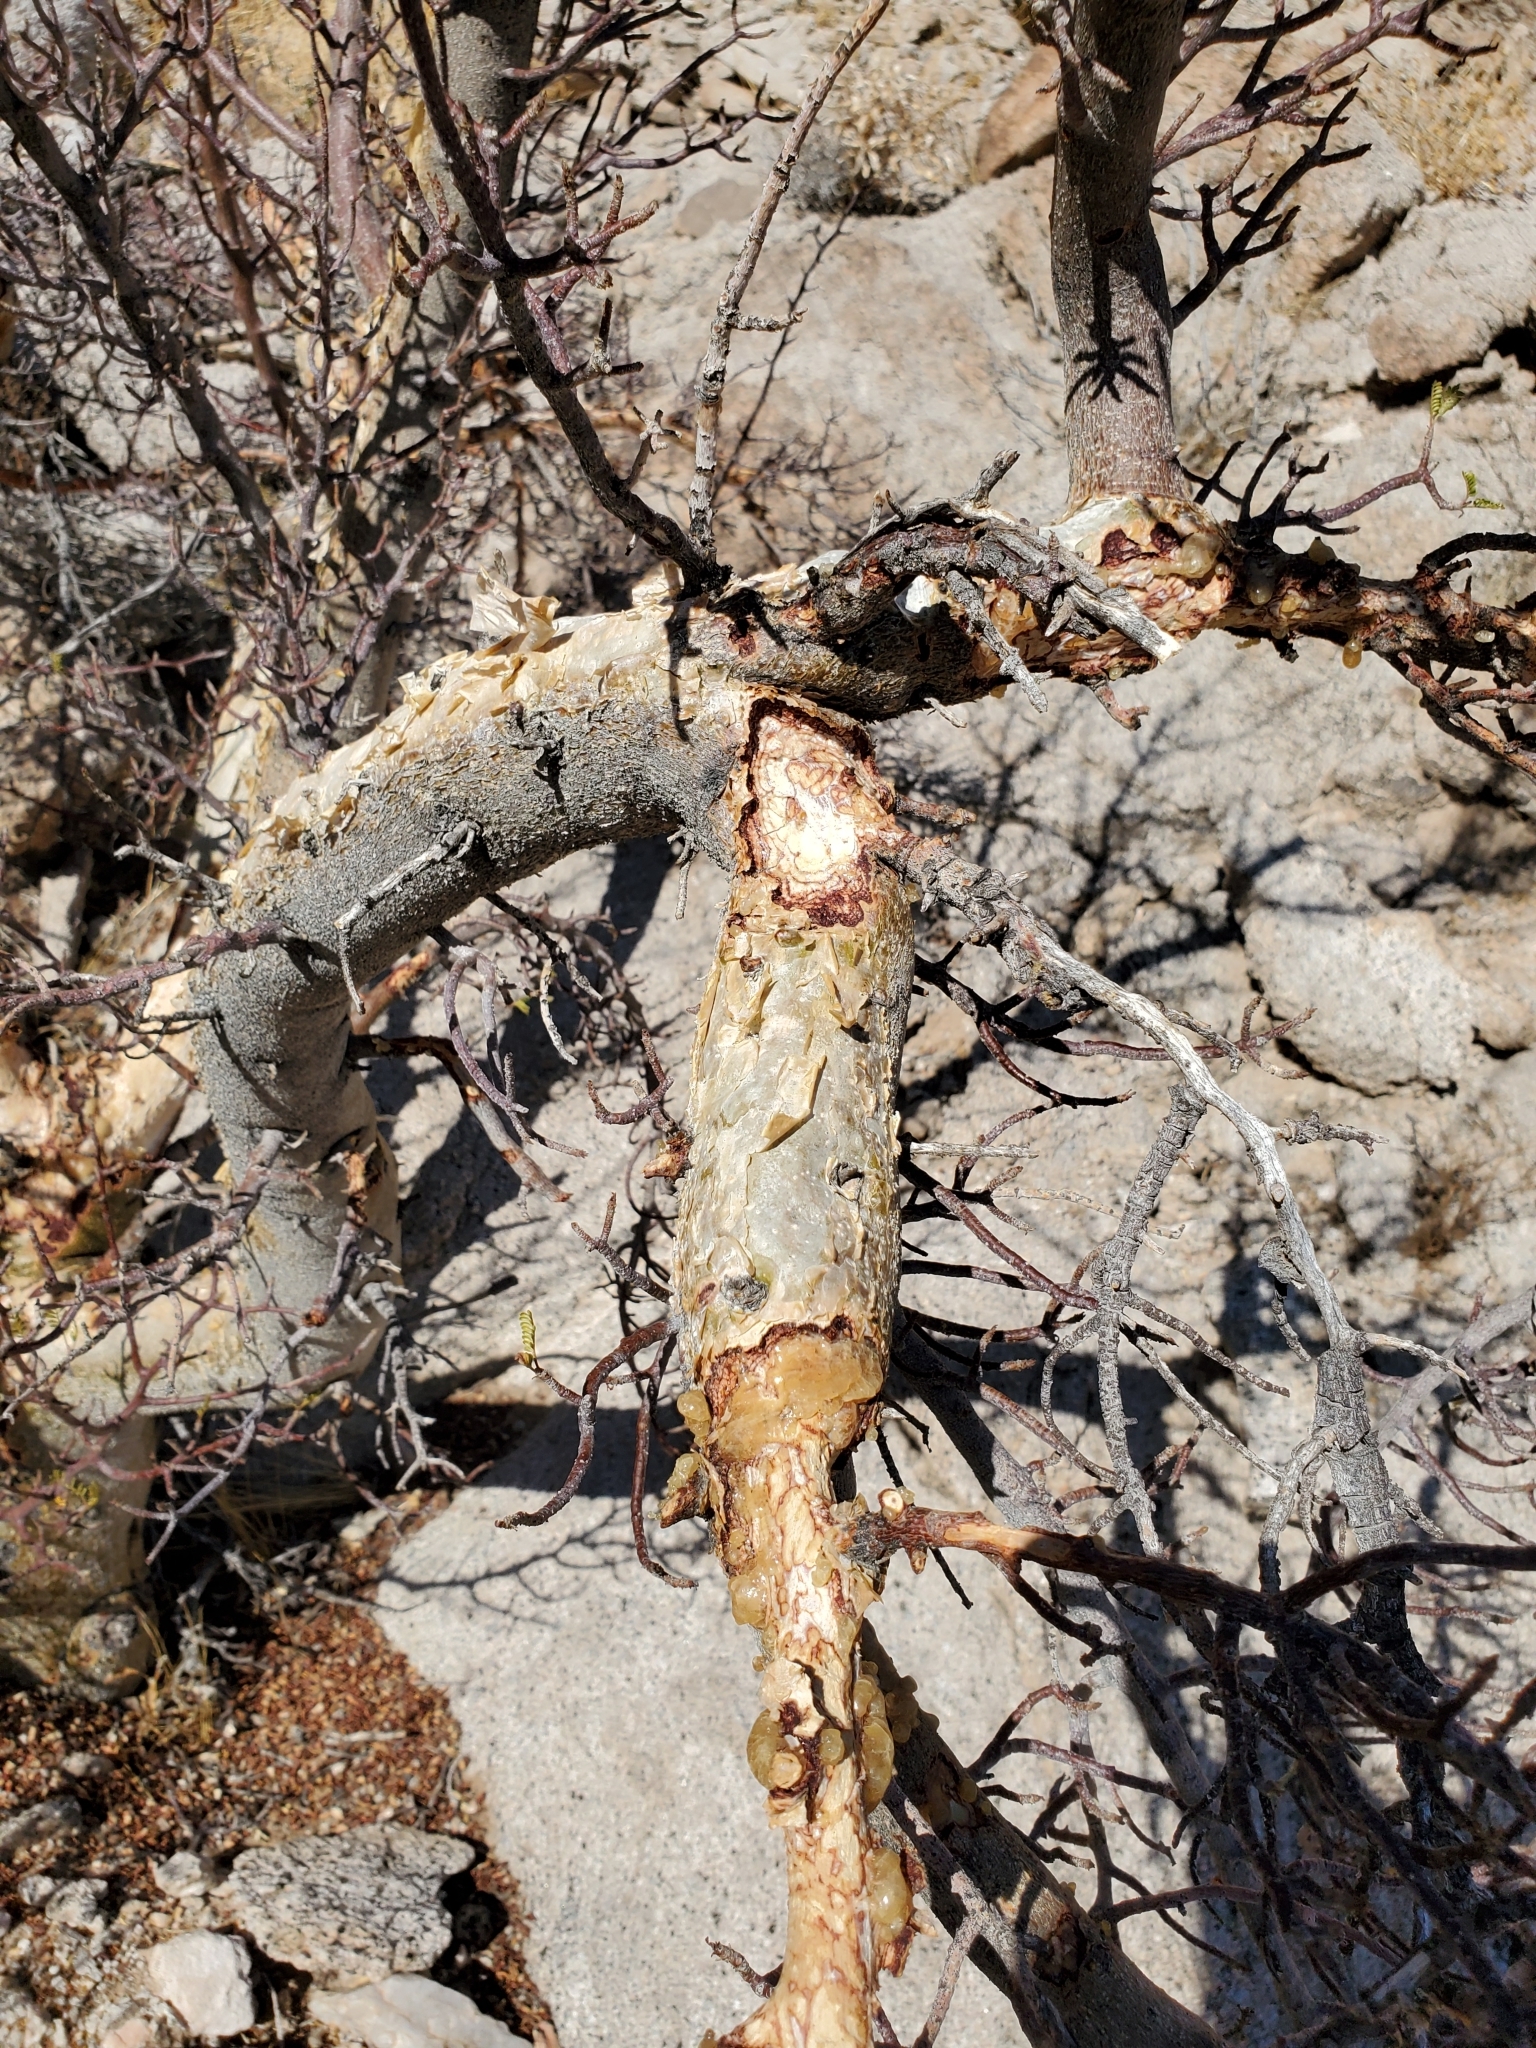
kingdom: Plantae
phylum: Tracheophyta
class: Magnoliopsida
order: Sapindales
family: Burseraceae
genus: Bursera
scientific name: Bursera microphylla
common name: Elephant tree
